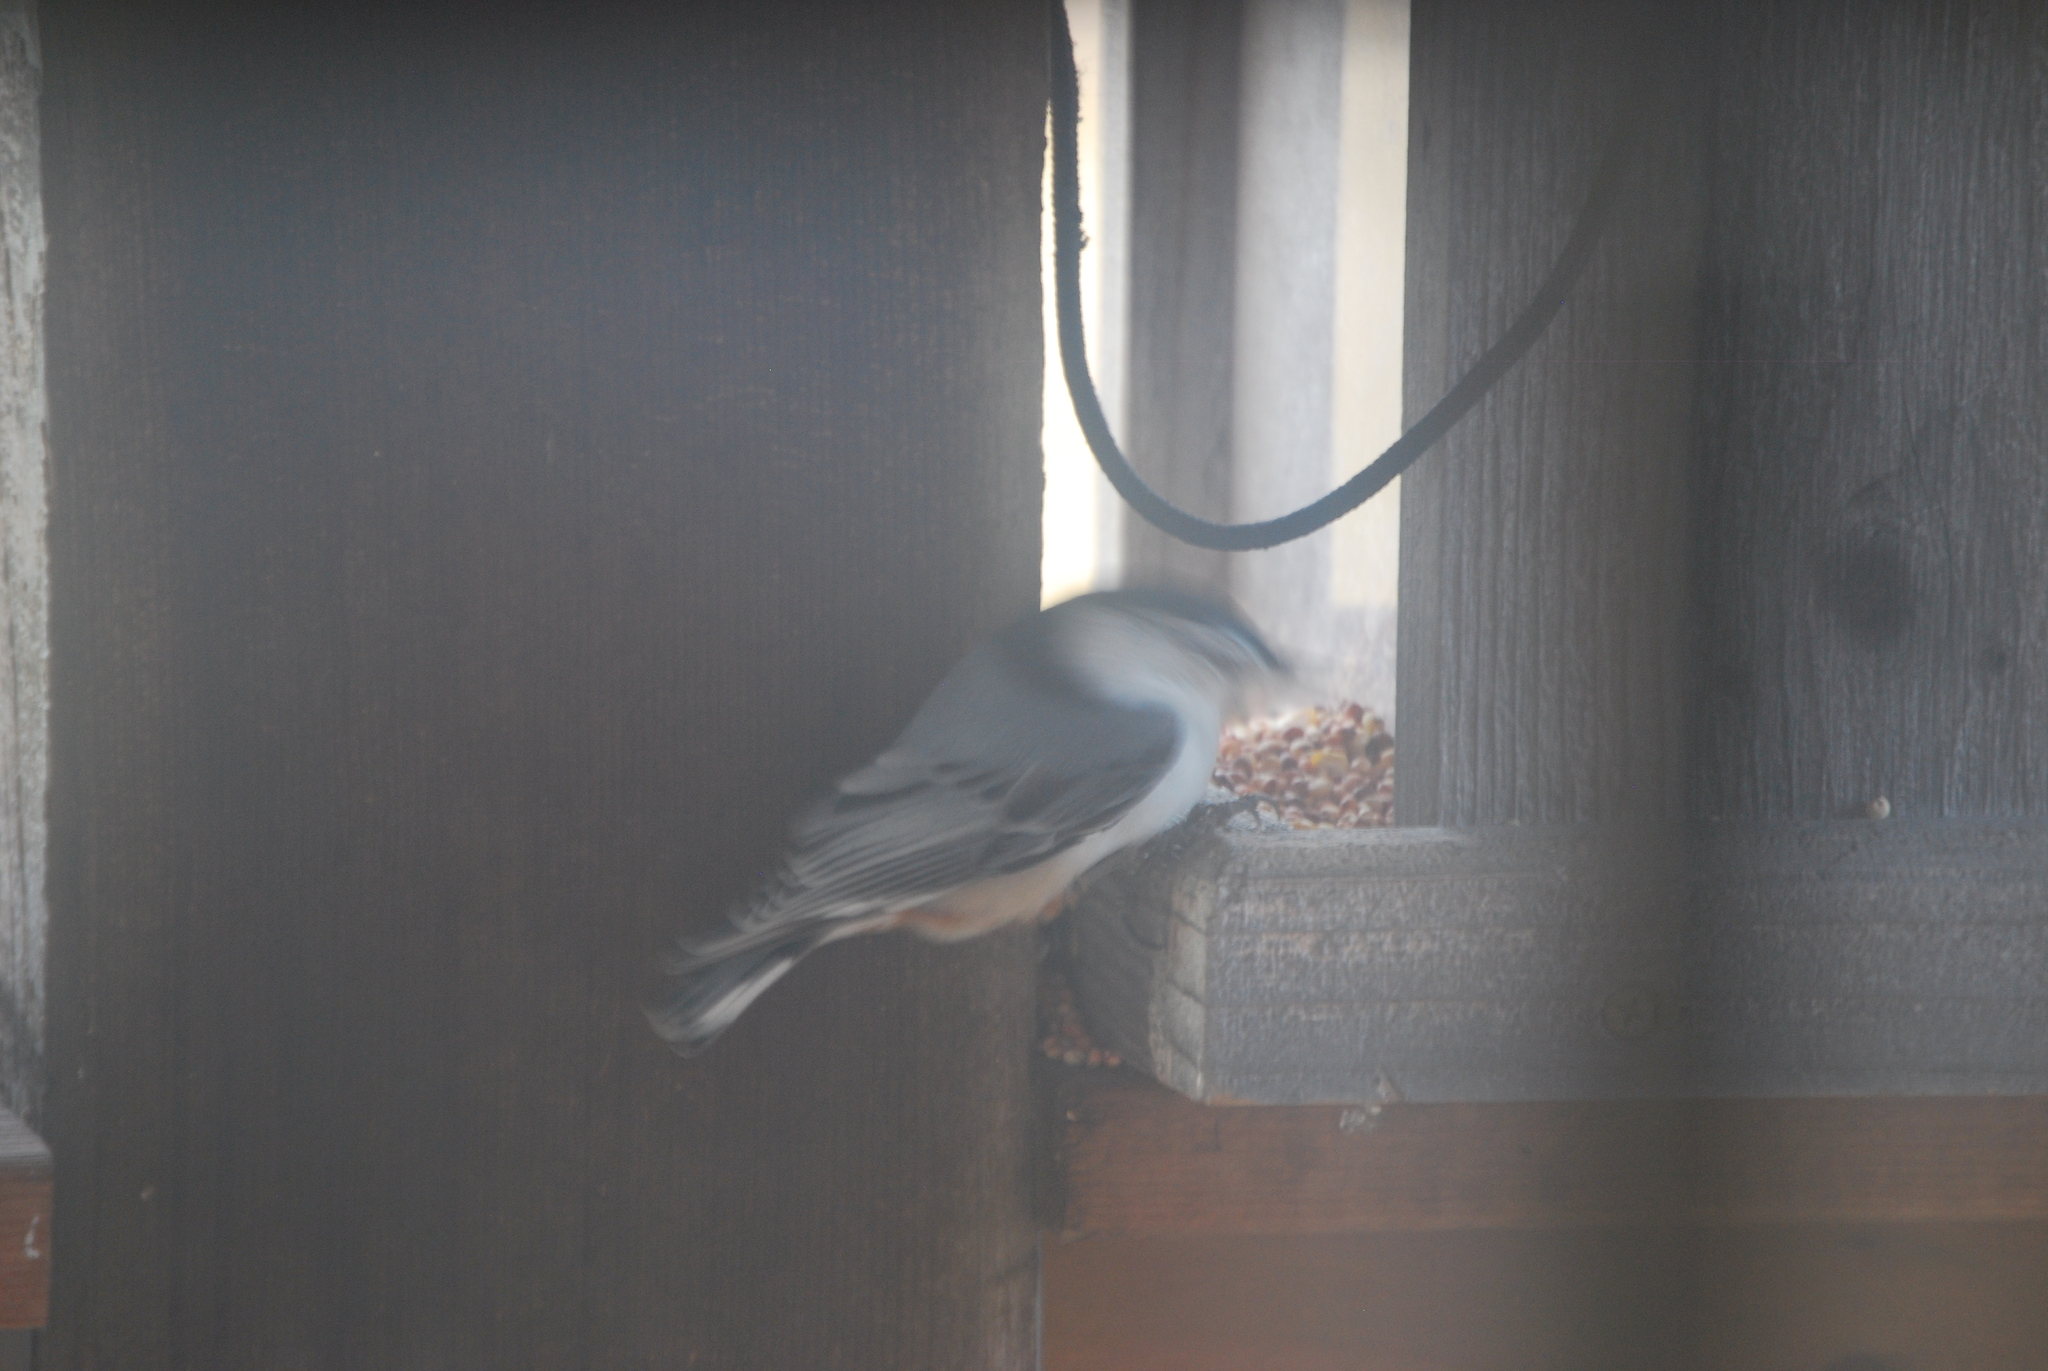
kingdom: Animalia
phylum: Chordata
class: Aves
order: Passeriformes
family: Sittidae
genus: Sitta
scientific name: Sitta carolinensis
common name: White-breasted nuthatch
